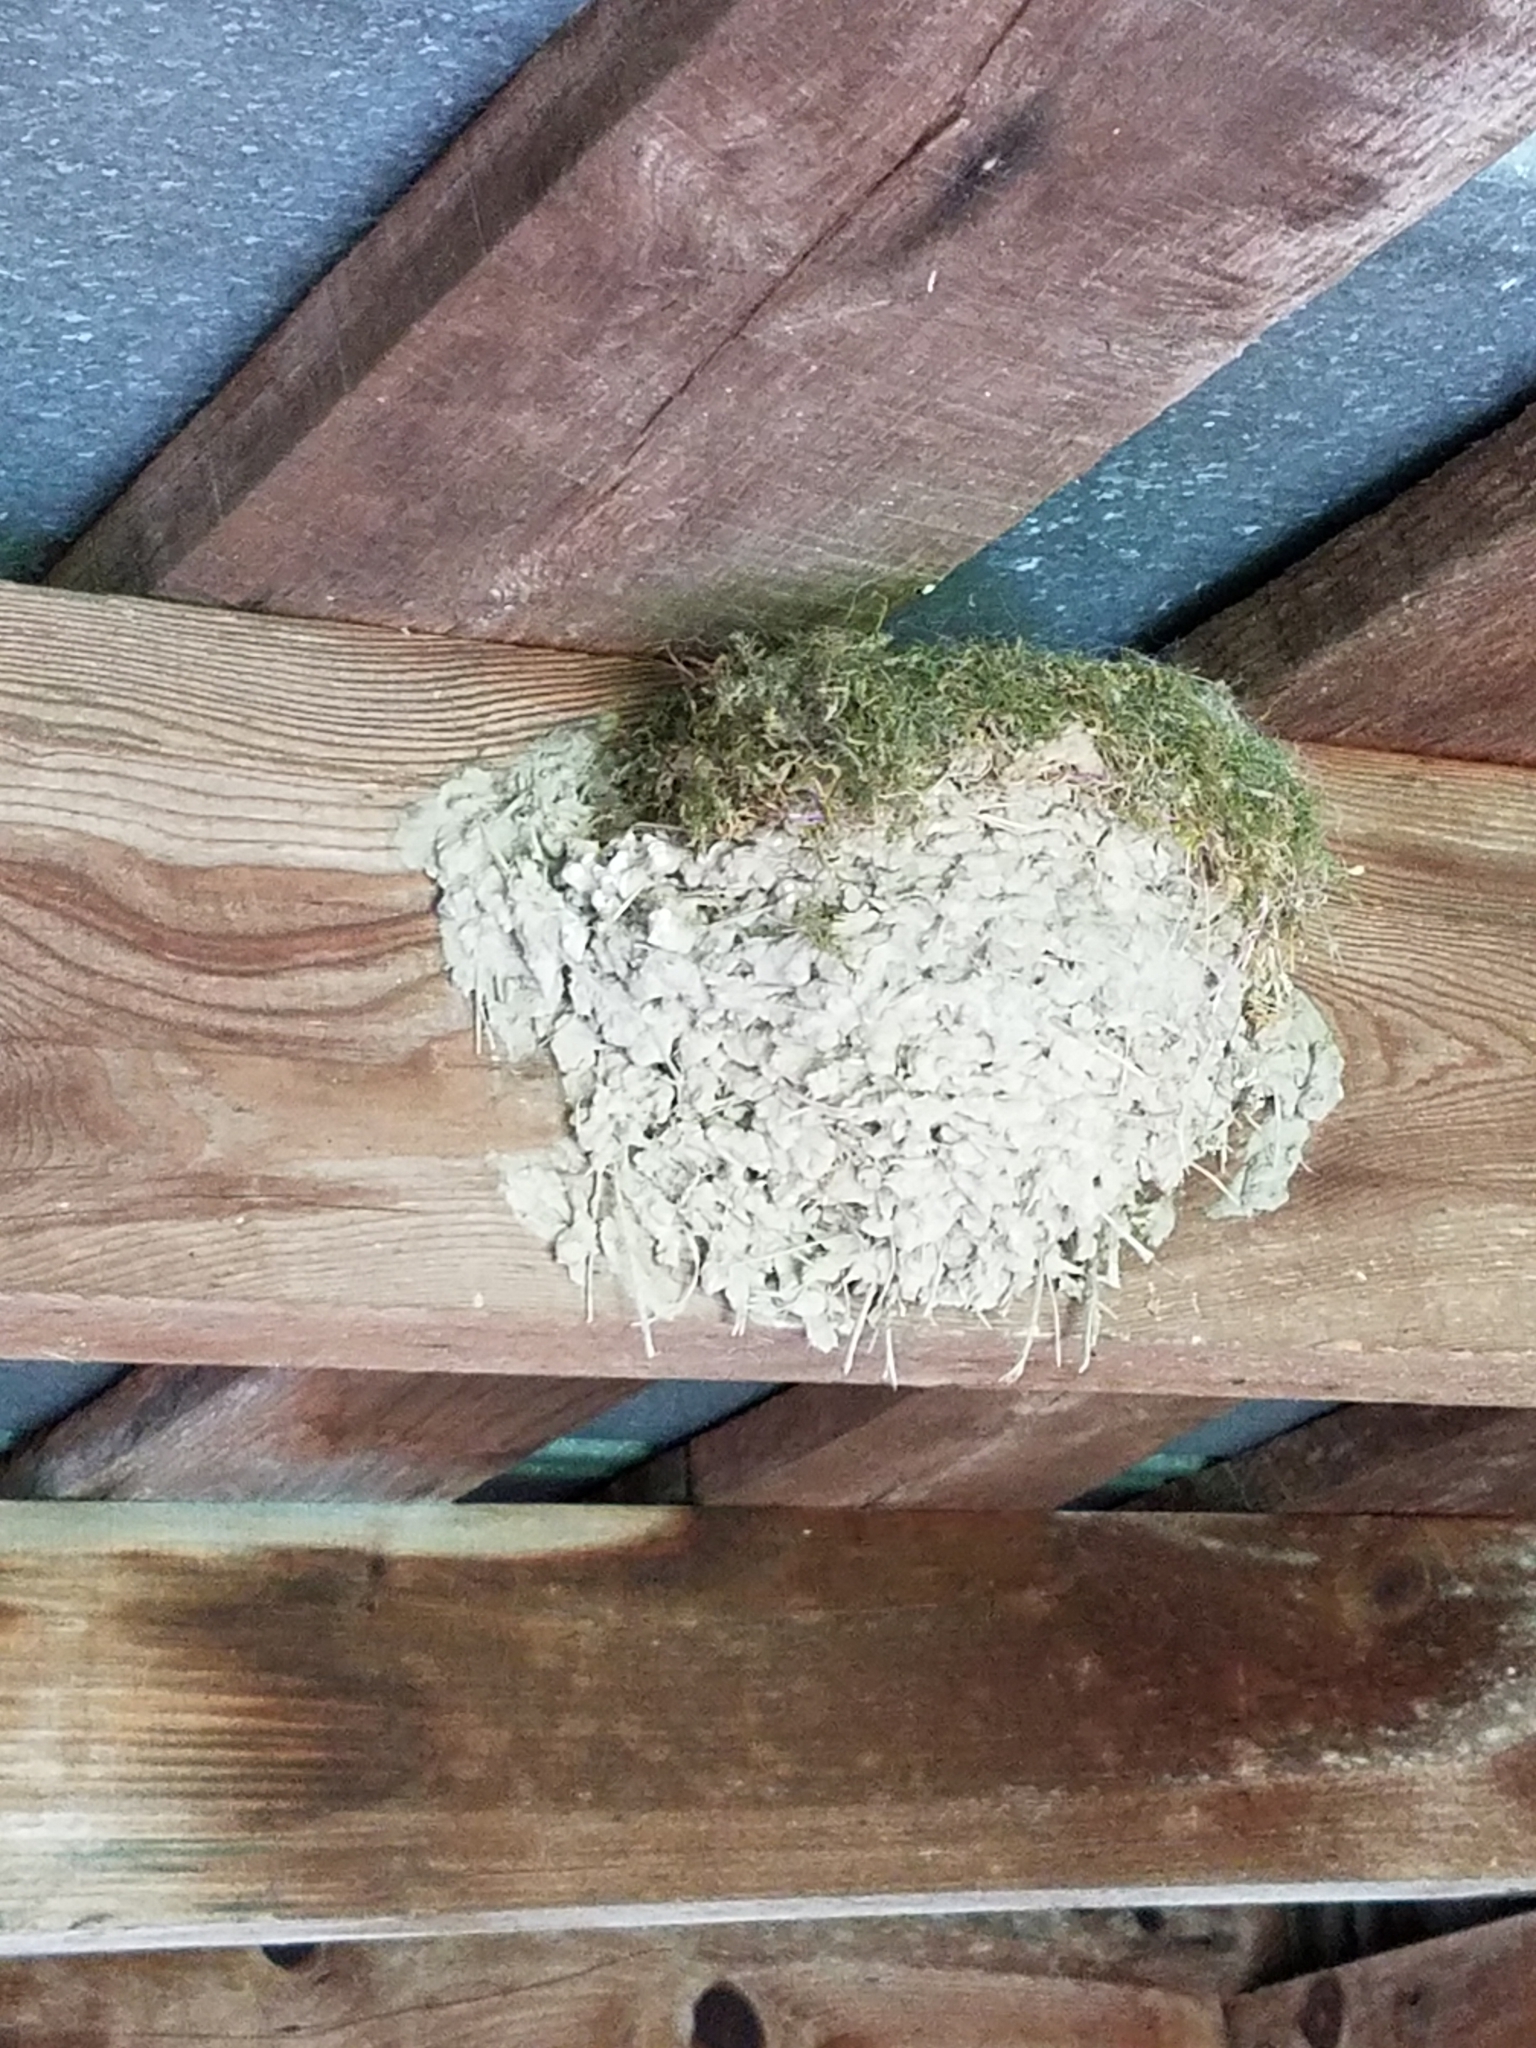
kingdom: Animalia
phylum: Chordata
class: Aves
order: Passeriformes
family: Tyrannidae
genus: Sayornis
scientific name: Sayornis phoebe
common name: Eastern phoebe
